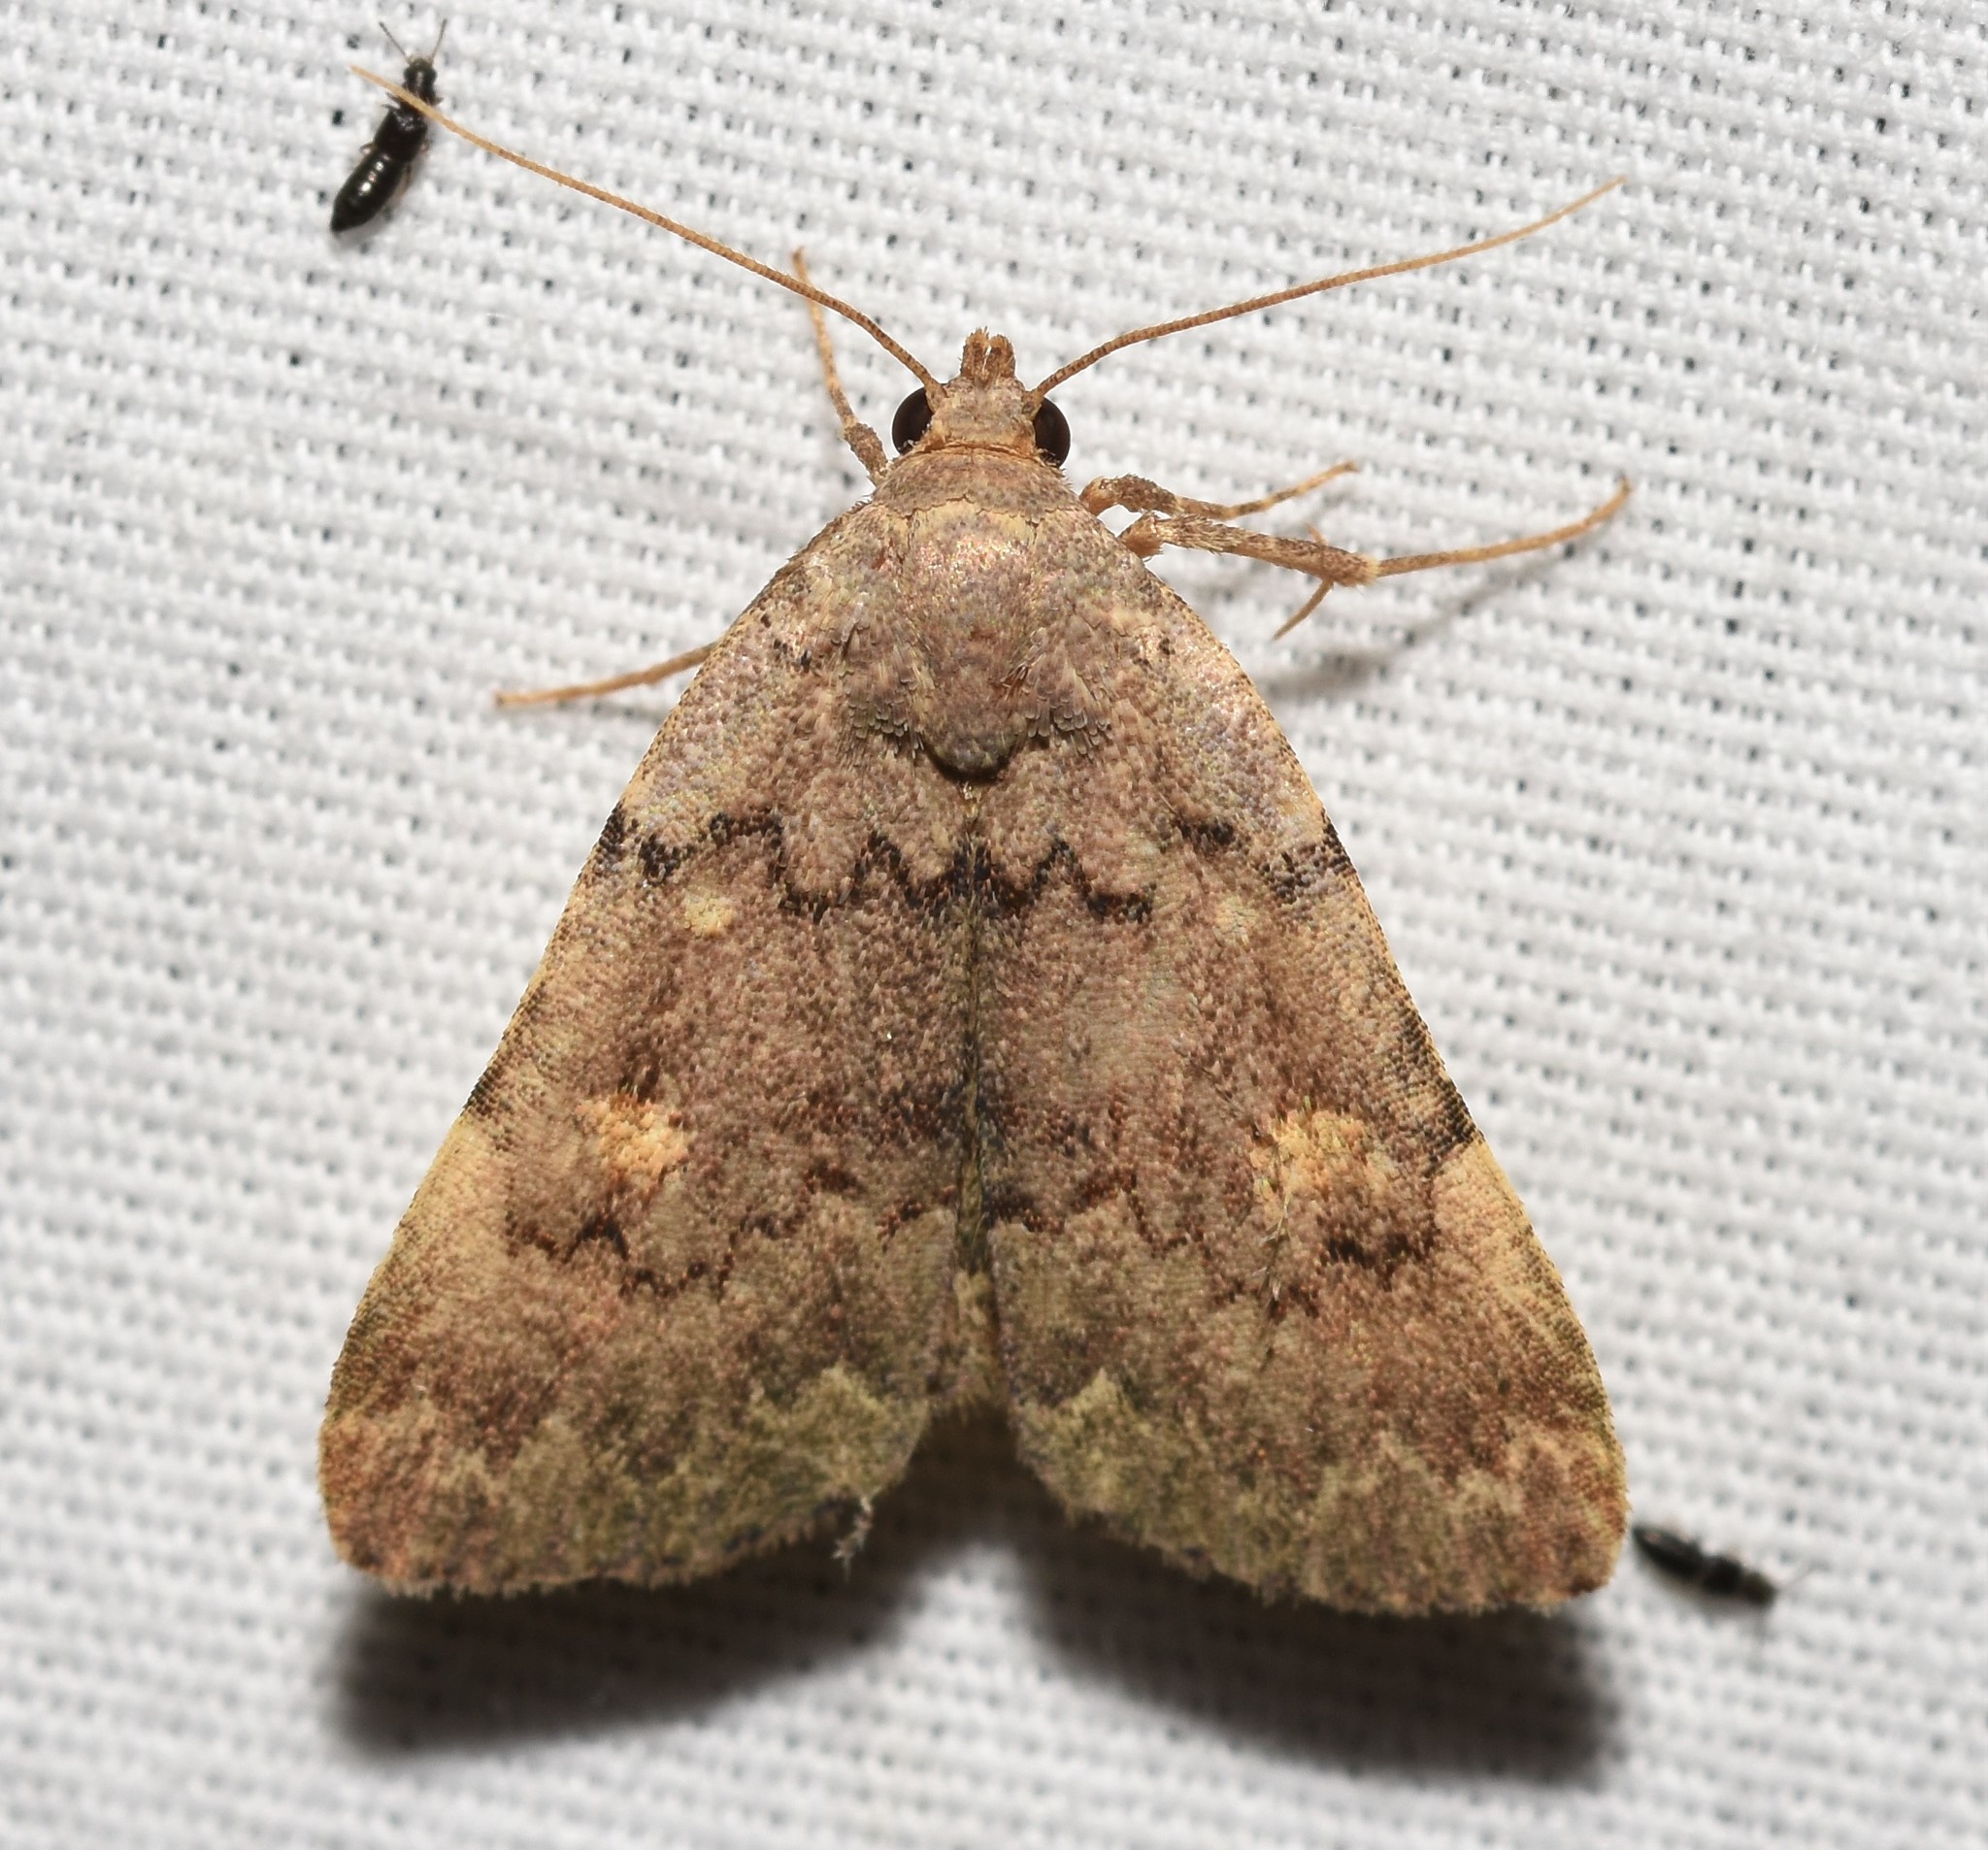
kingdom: Animalia
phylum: Arthropoda
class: Insecta
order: Lepidoptera
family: Erebidae
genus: Idia
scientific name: Idia aemula
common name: Common idia moth
